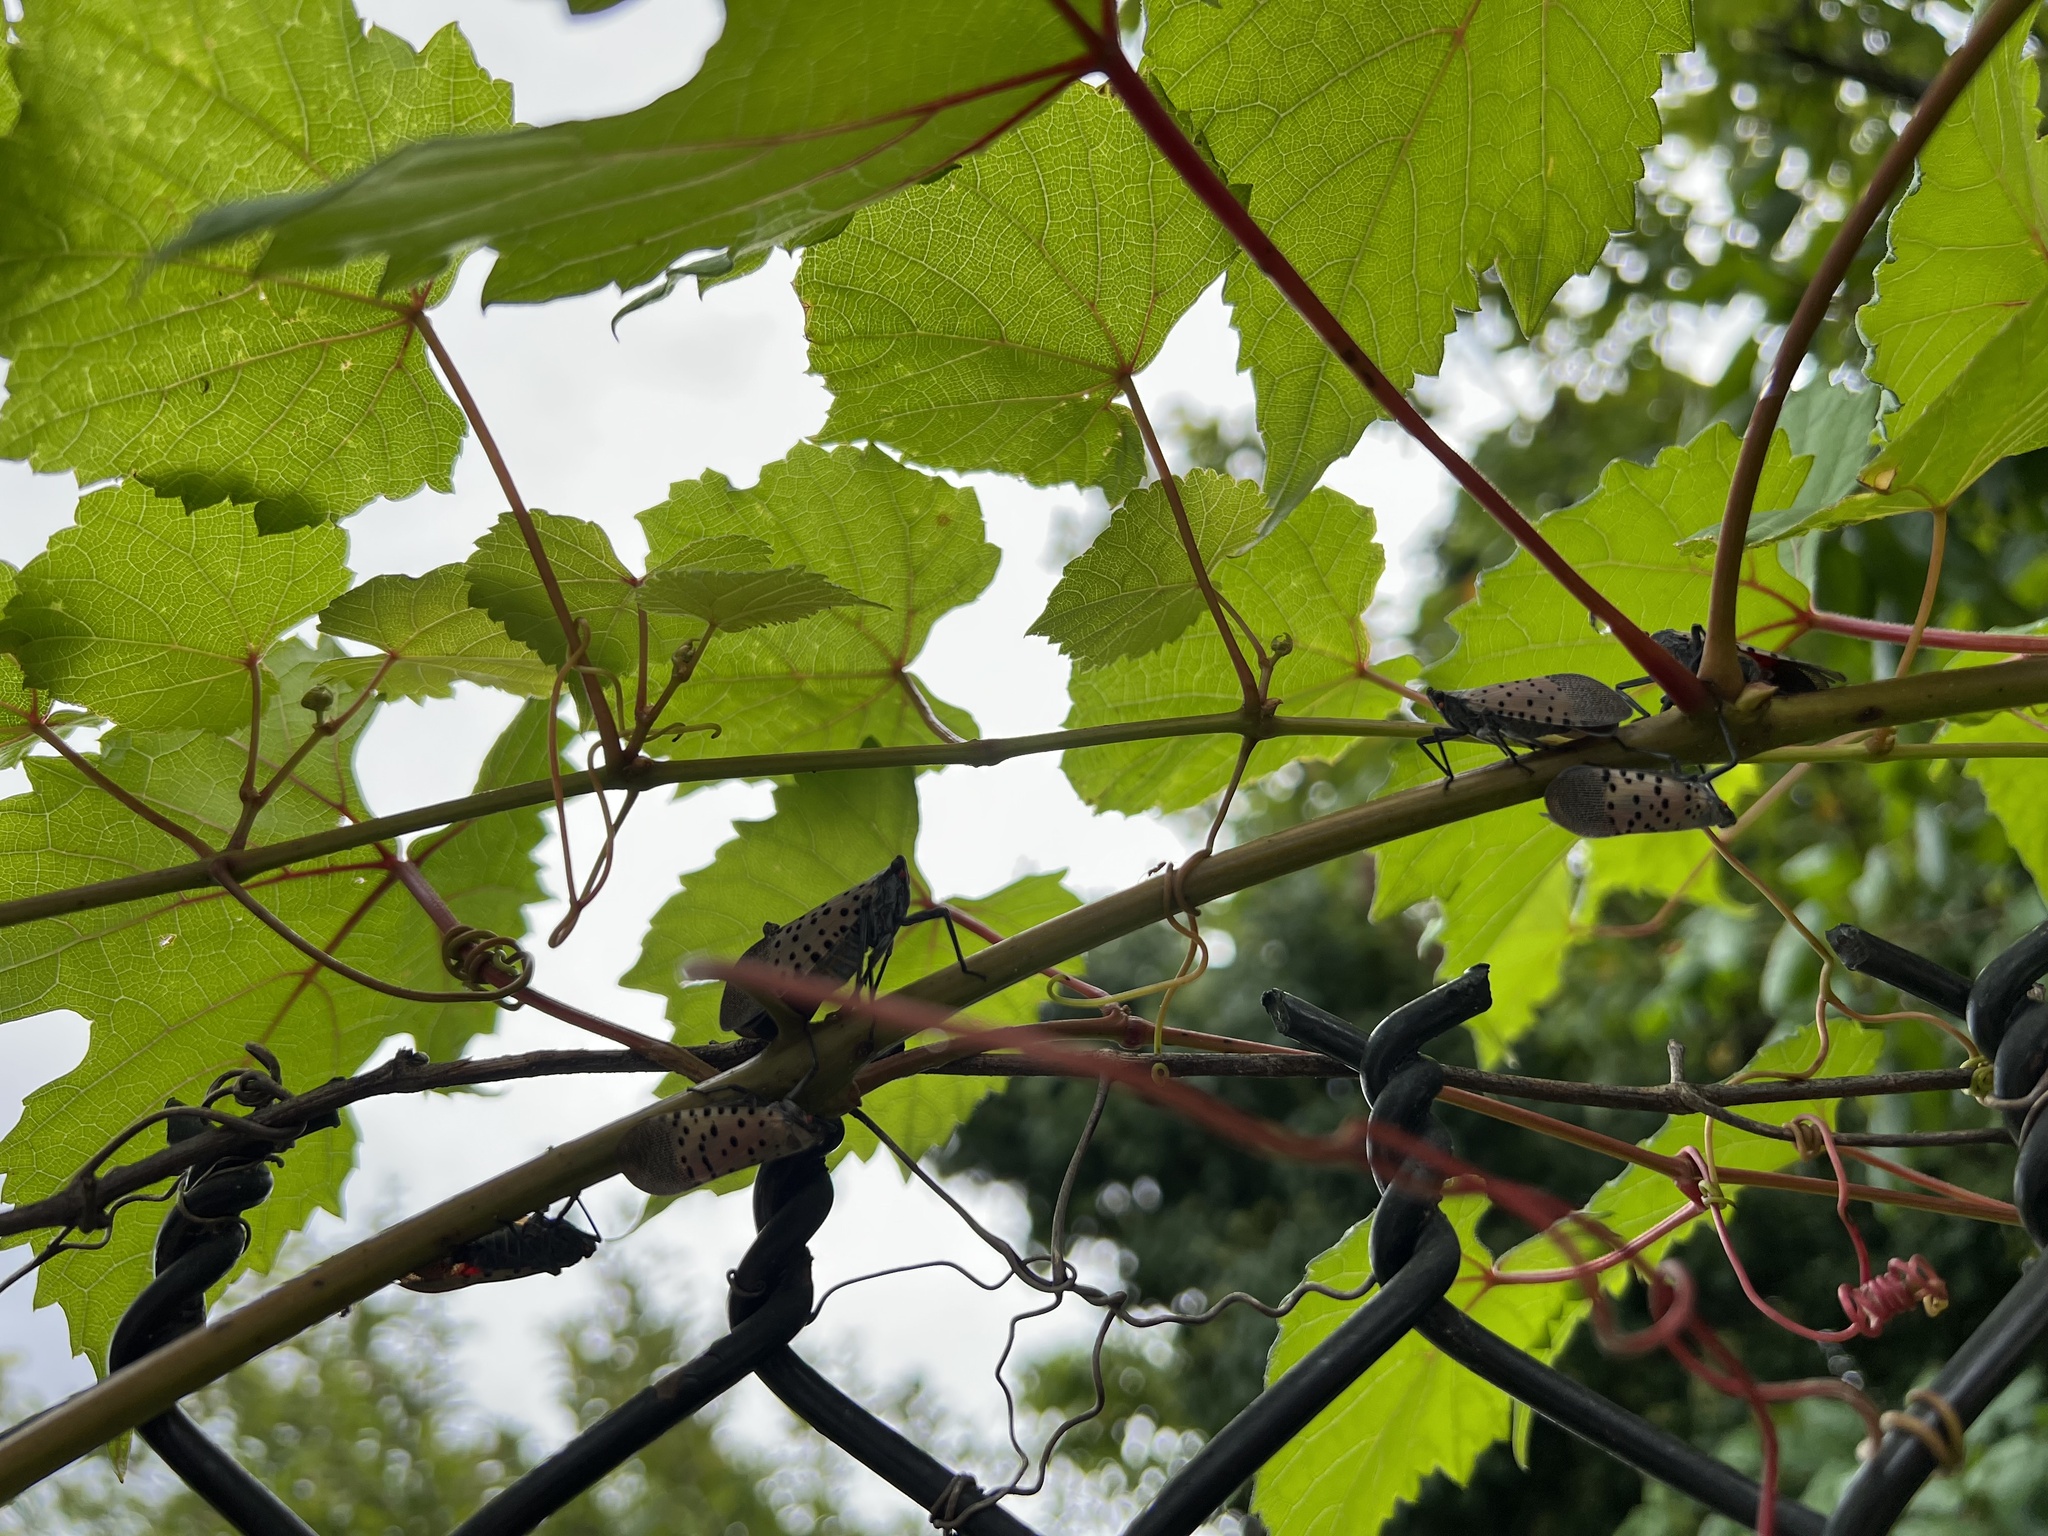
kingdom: Animalia
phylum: Arthropoda
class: Insecta
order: Hemiptera
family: Fulgoridae
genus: Lycorma
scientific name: Lycorma delicatula
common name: Spotted lanternfly
